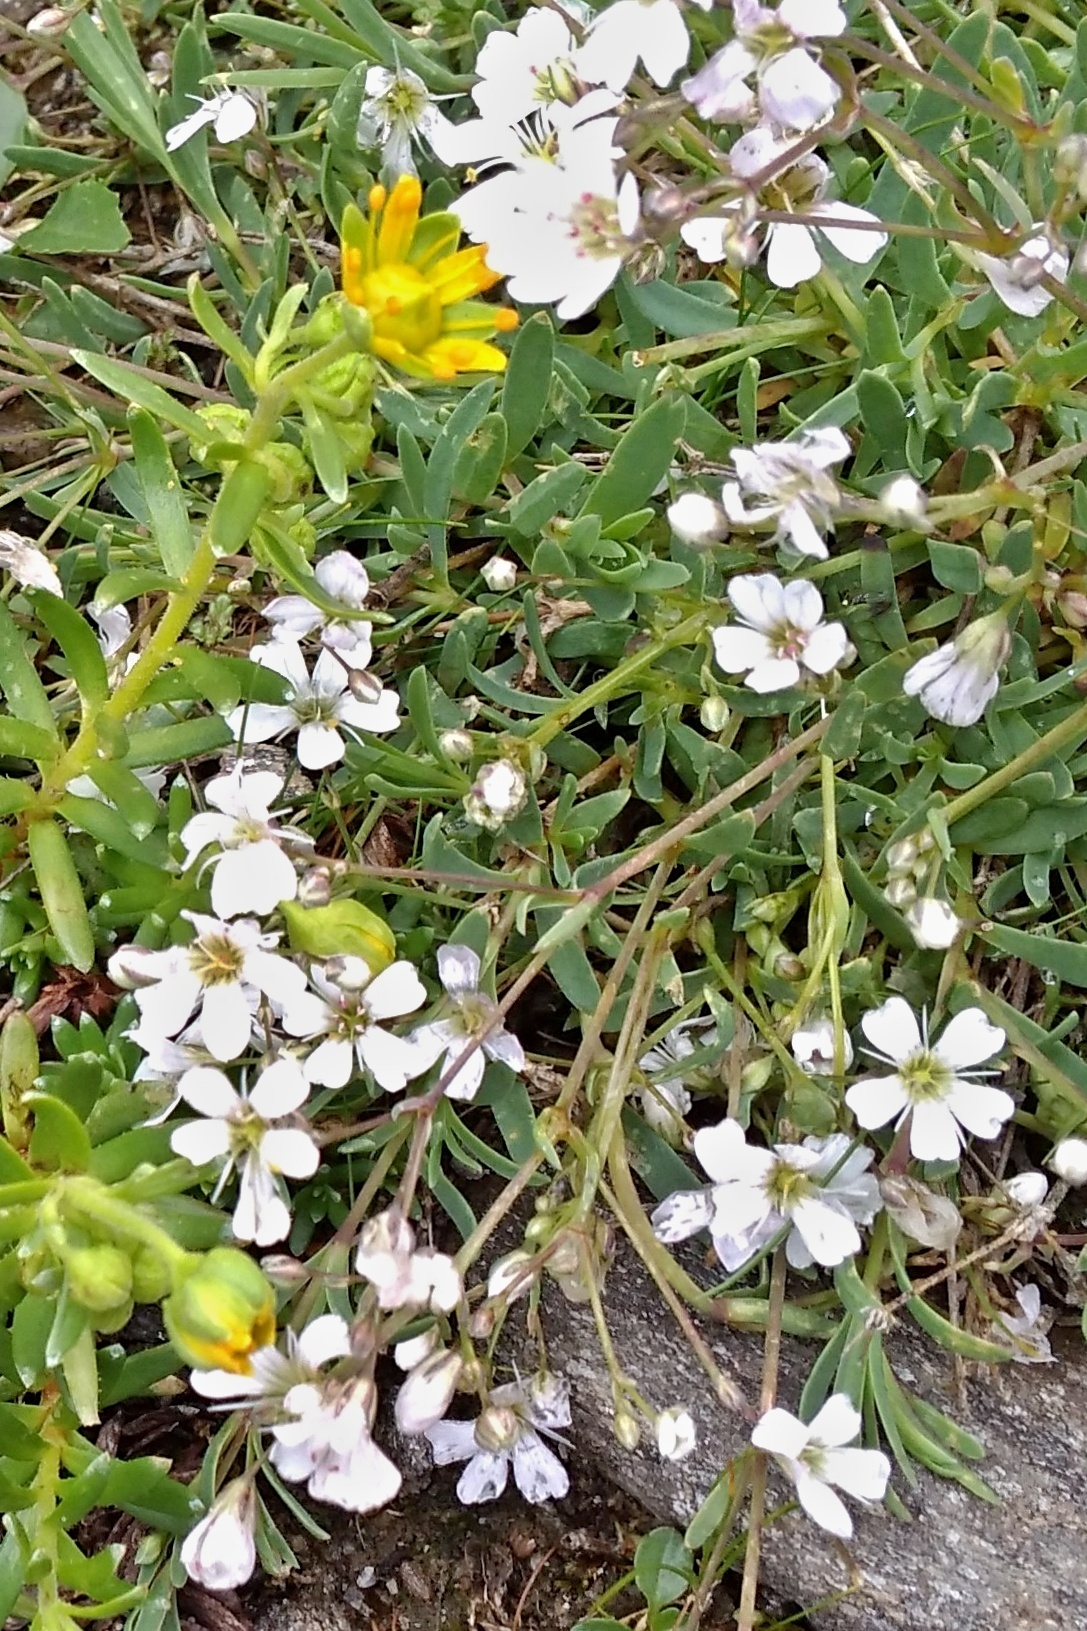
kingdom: Plantae
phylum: Tracheophyta
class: Magnoliopsida
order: Caryophyllales
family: Caryophyllaceae
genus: Gypsophila
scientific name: Gypsophila repens
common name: Creeping baby's-breath
